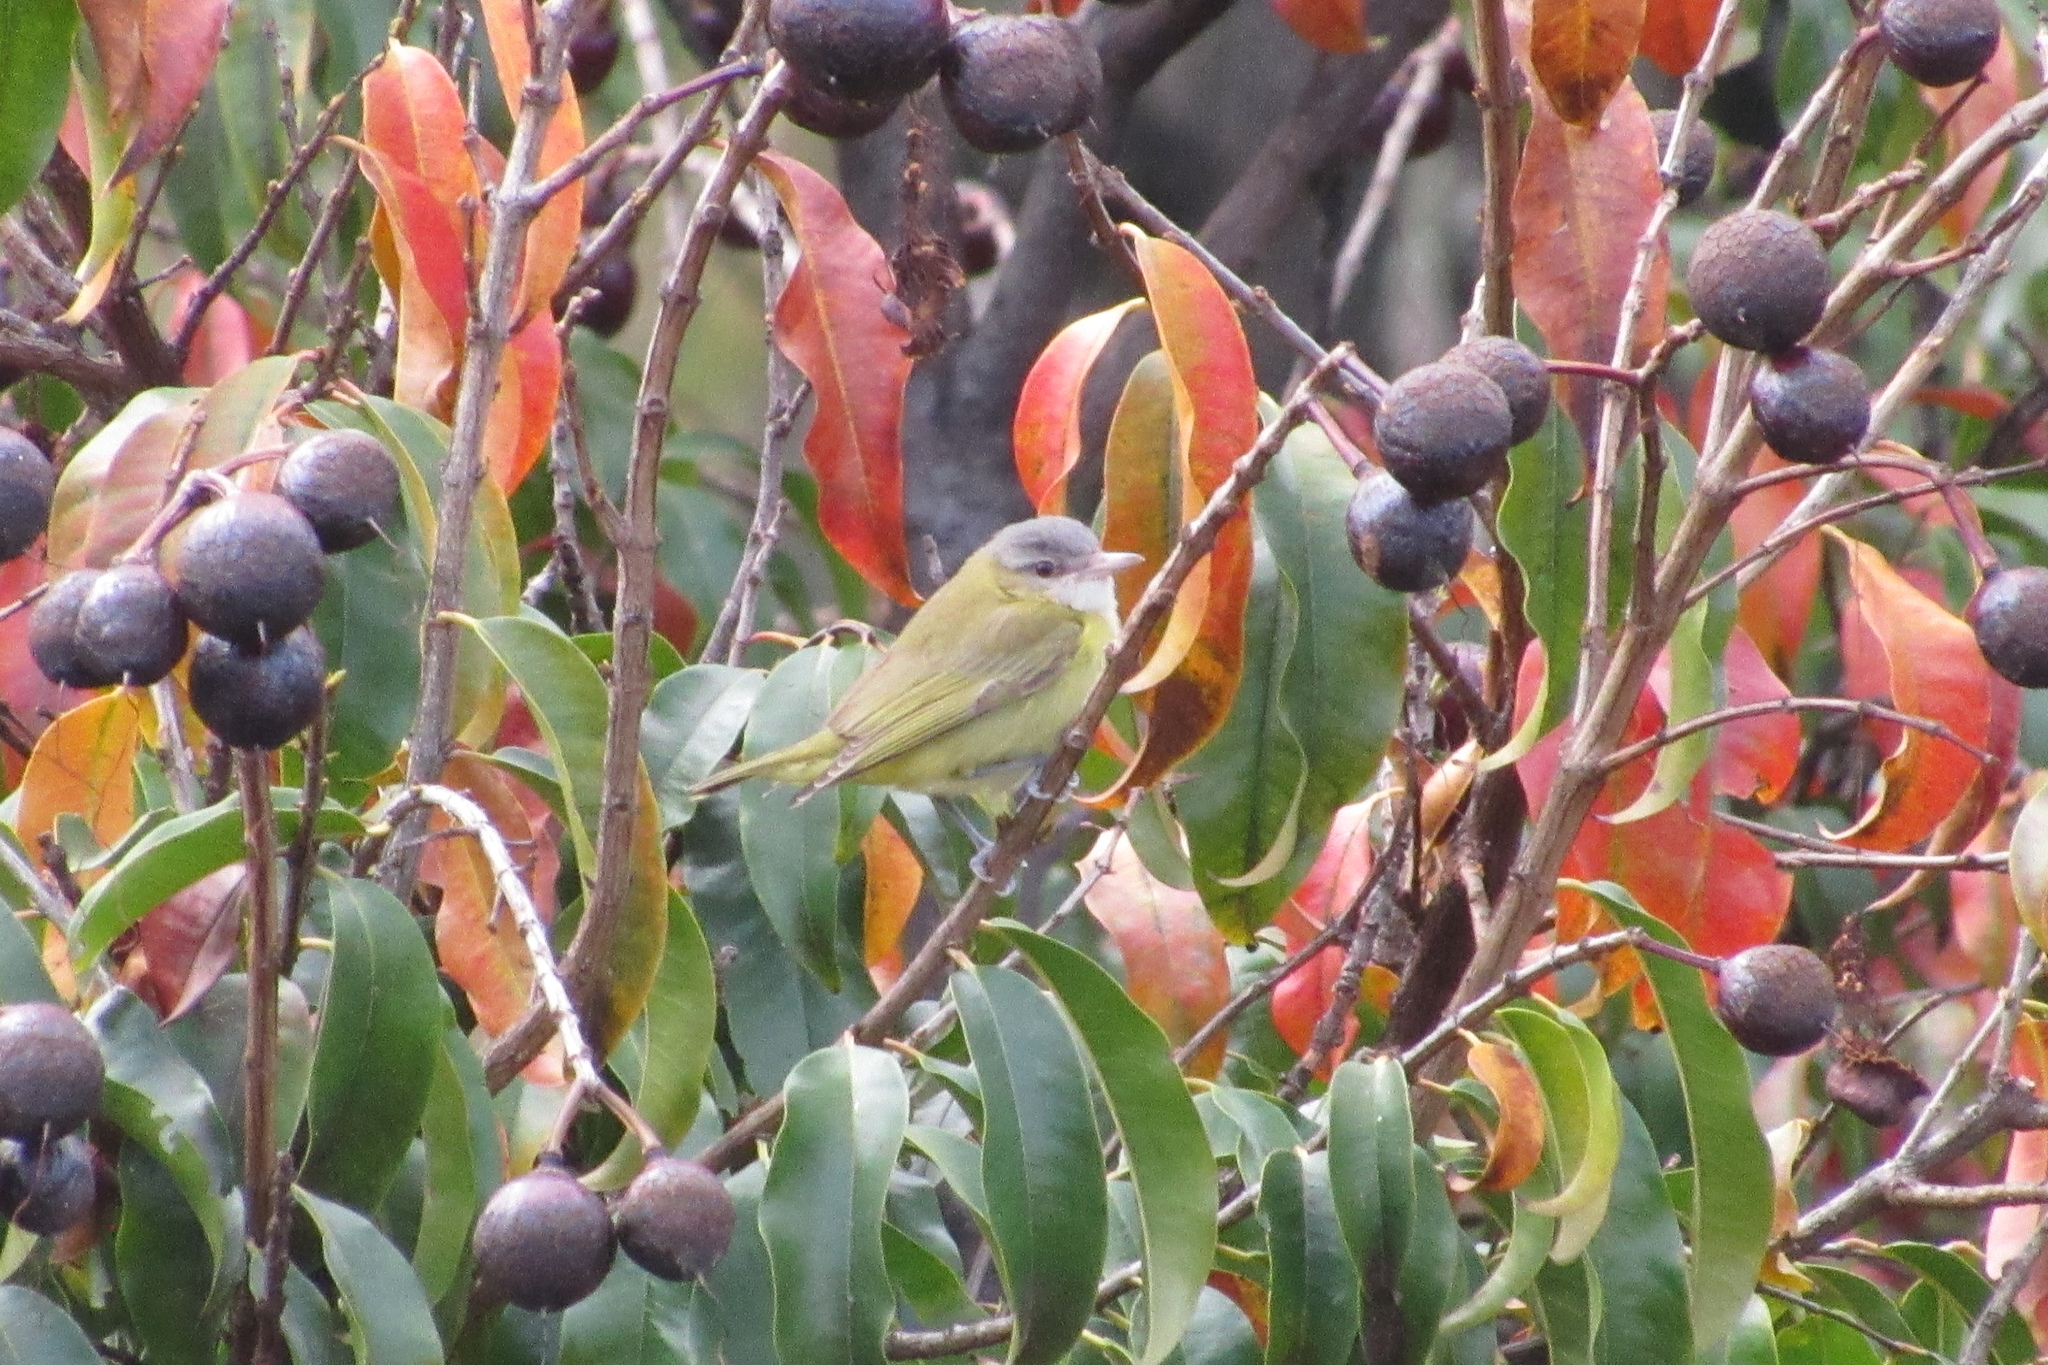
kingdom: Animalia
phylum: Chordata
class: Aves
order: Passeriformes
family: Vireonidae
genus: Vireo
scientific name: Vireo flavoviridis
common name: Yellow-green vireo
